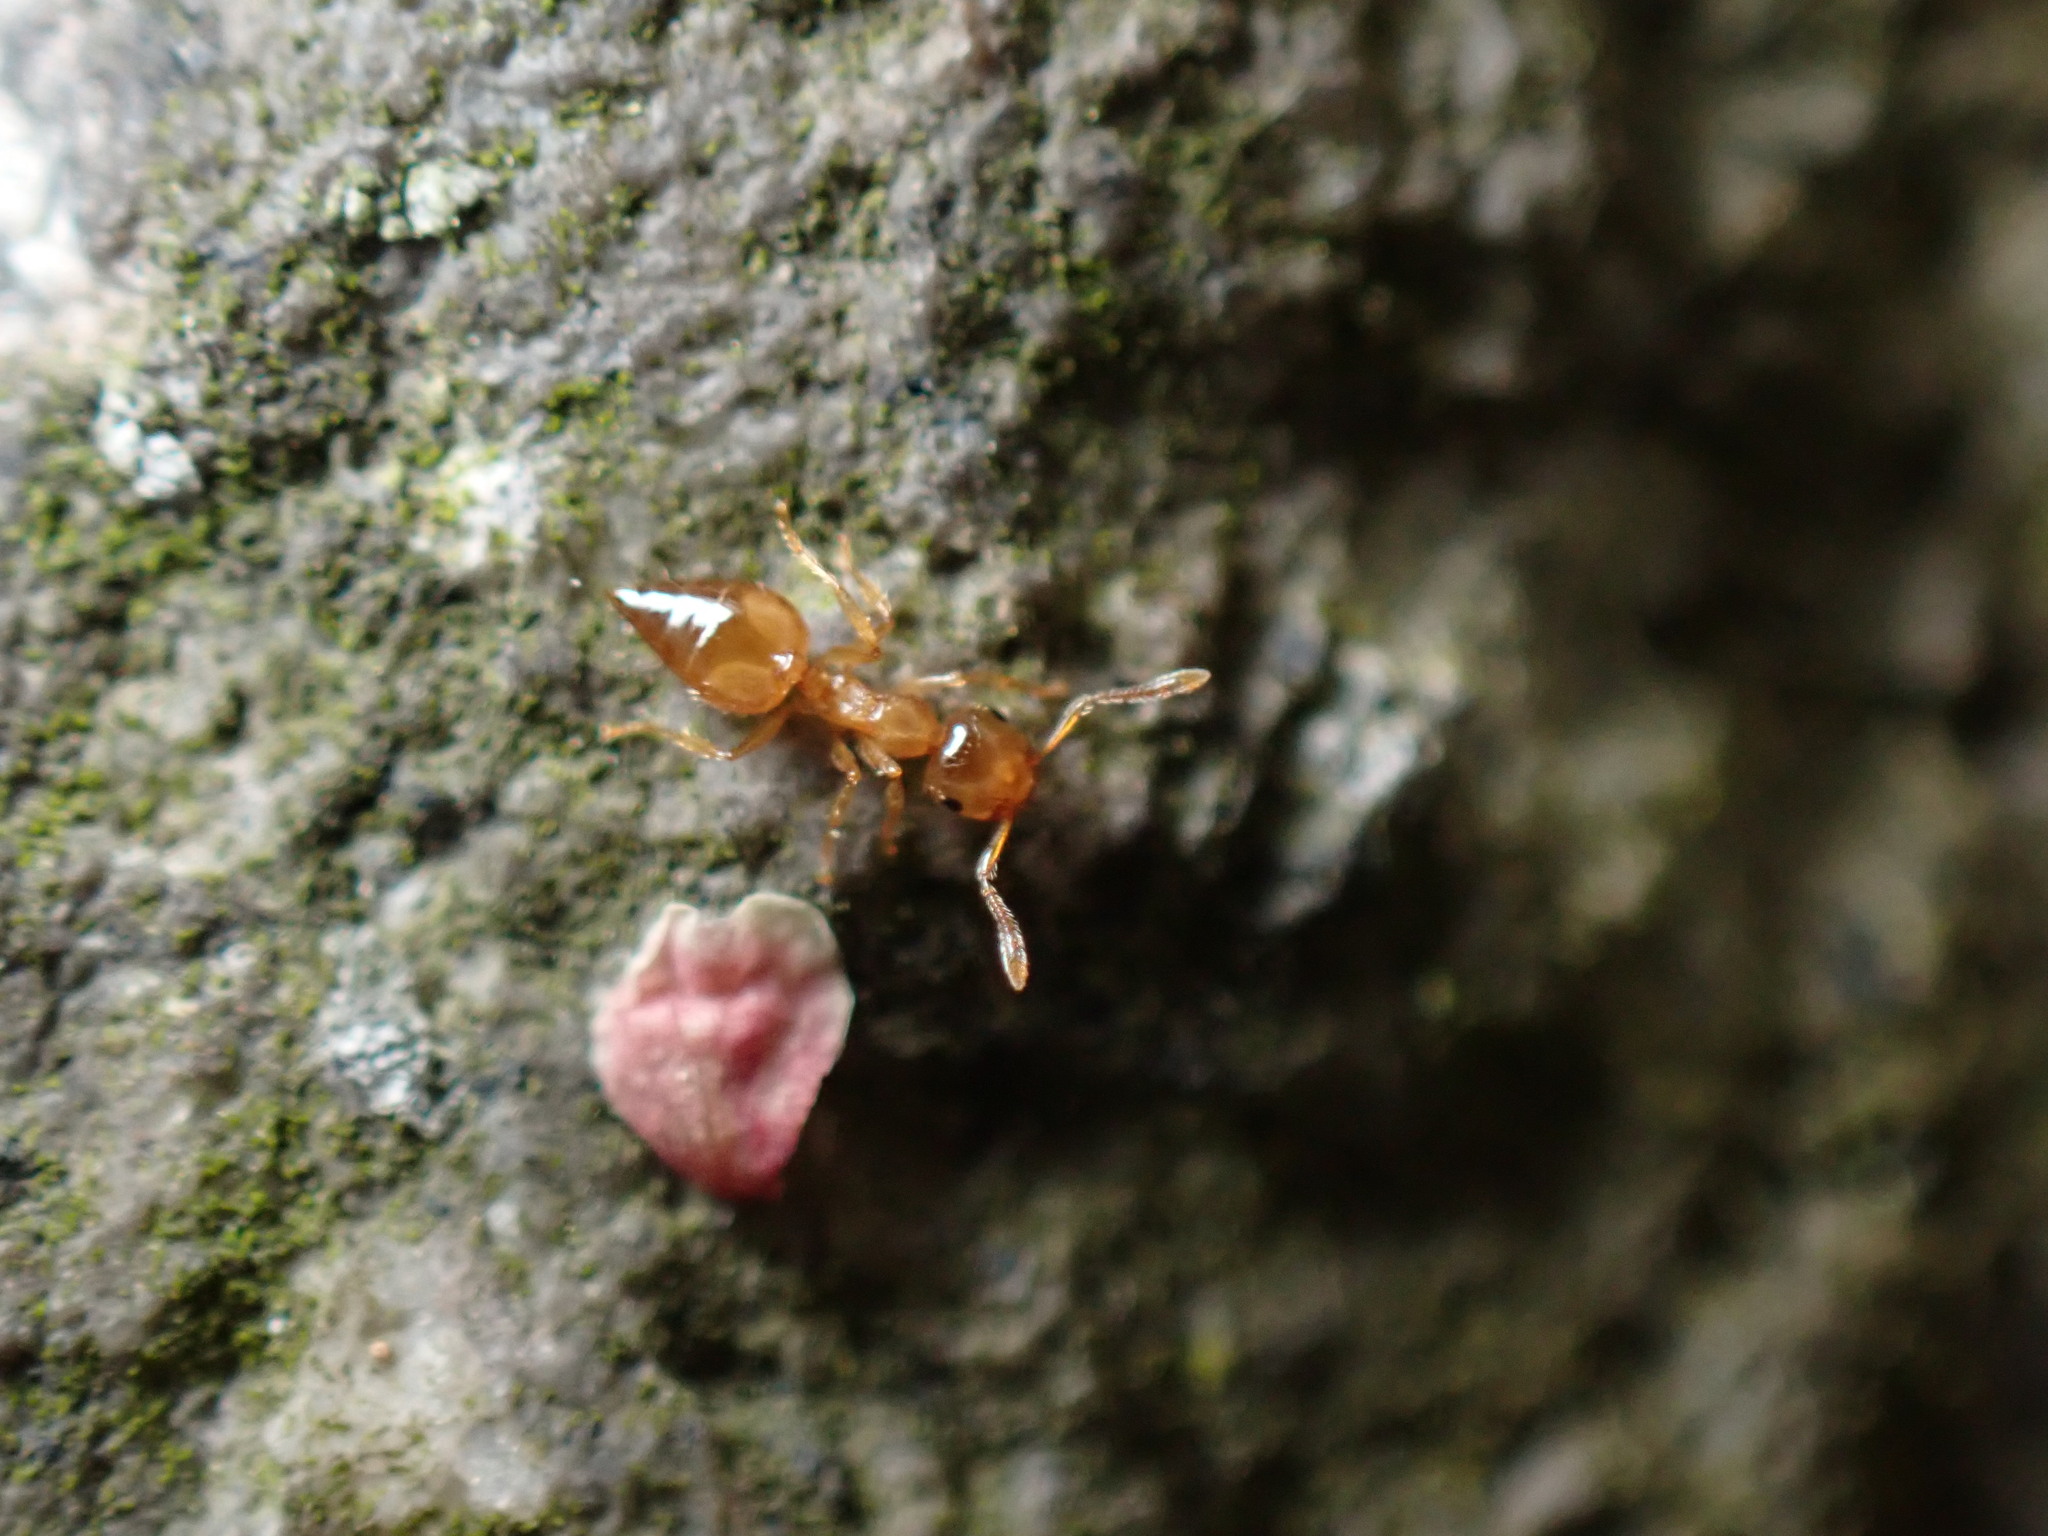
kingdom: Animalia
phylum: Arthropoda
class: Insecta
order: Hymenoptera
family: Formicidae
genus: Crematogaster
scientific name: Crematogaster osakensis
